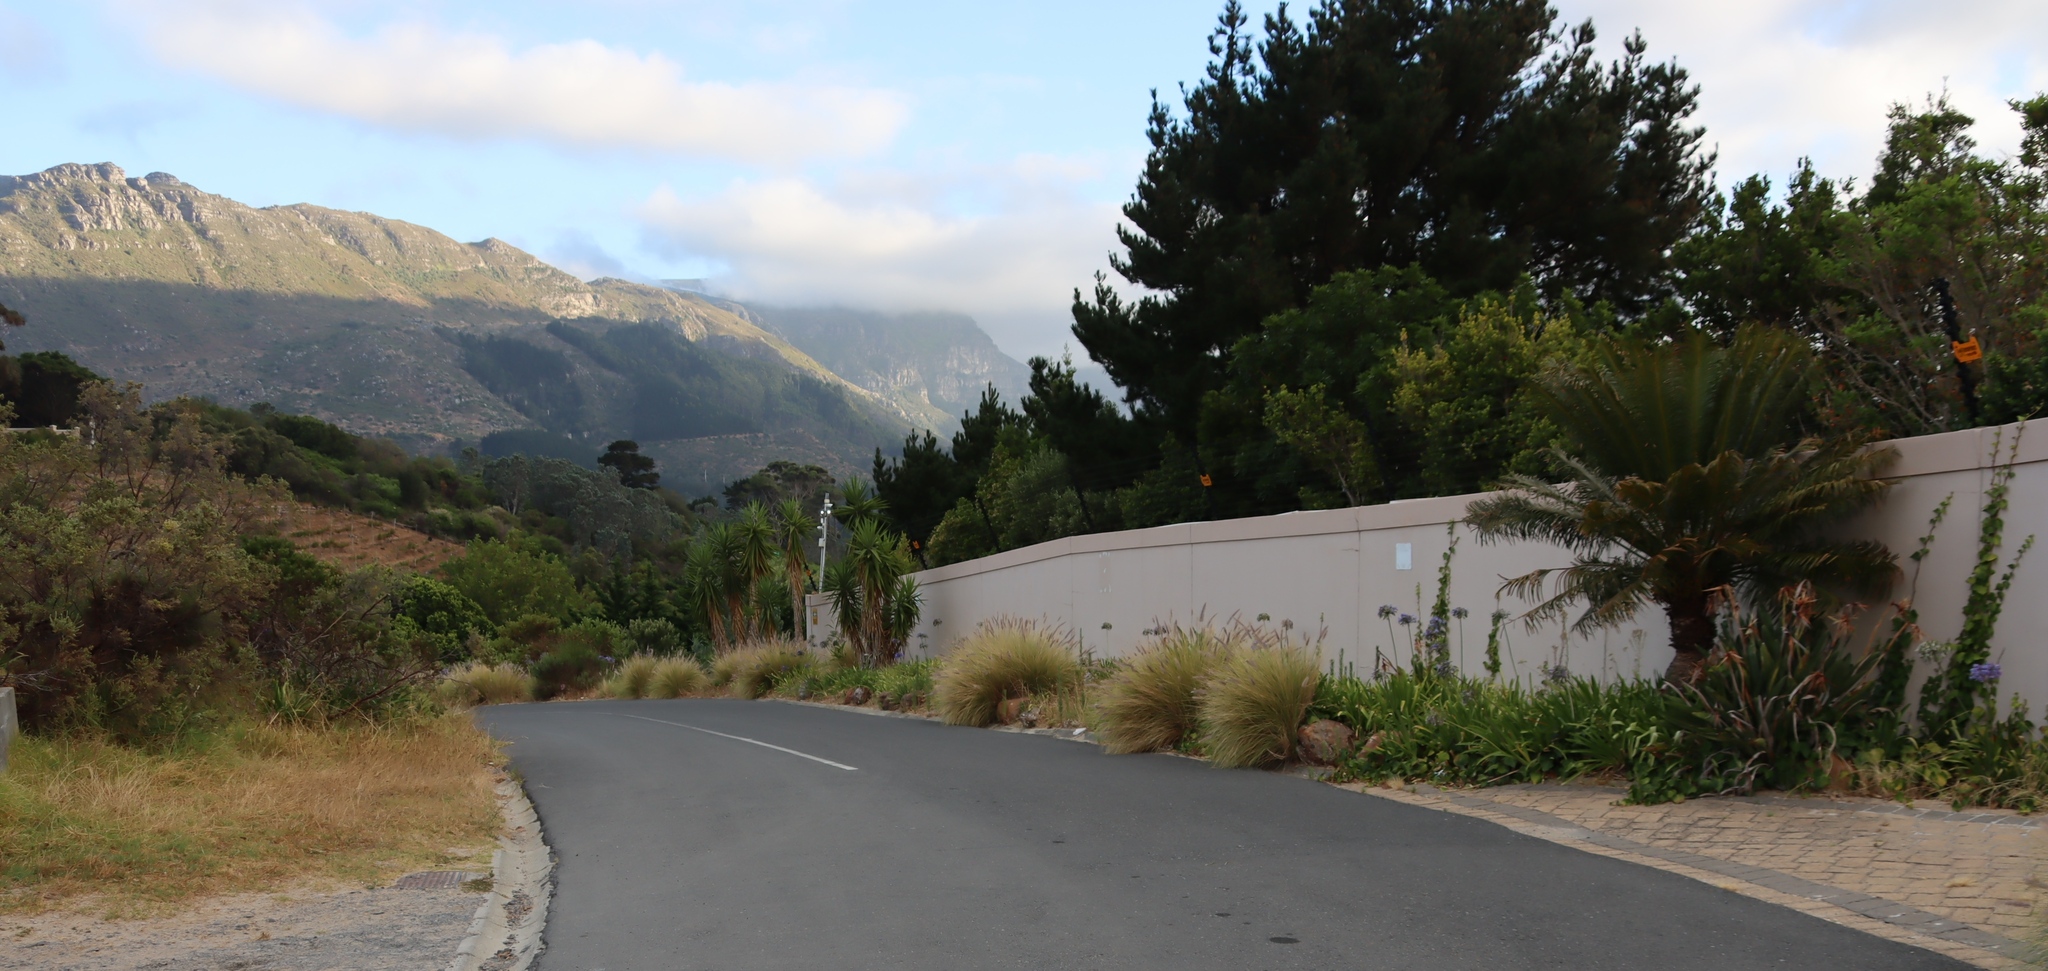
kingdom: Plantae
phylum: Tracheophyta
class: Liliopsida
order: Poales
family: Poaceae
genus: Cenchrus
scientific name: Cenchrus setaceus
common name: Crimson fountaingrass
